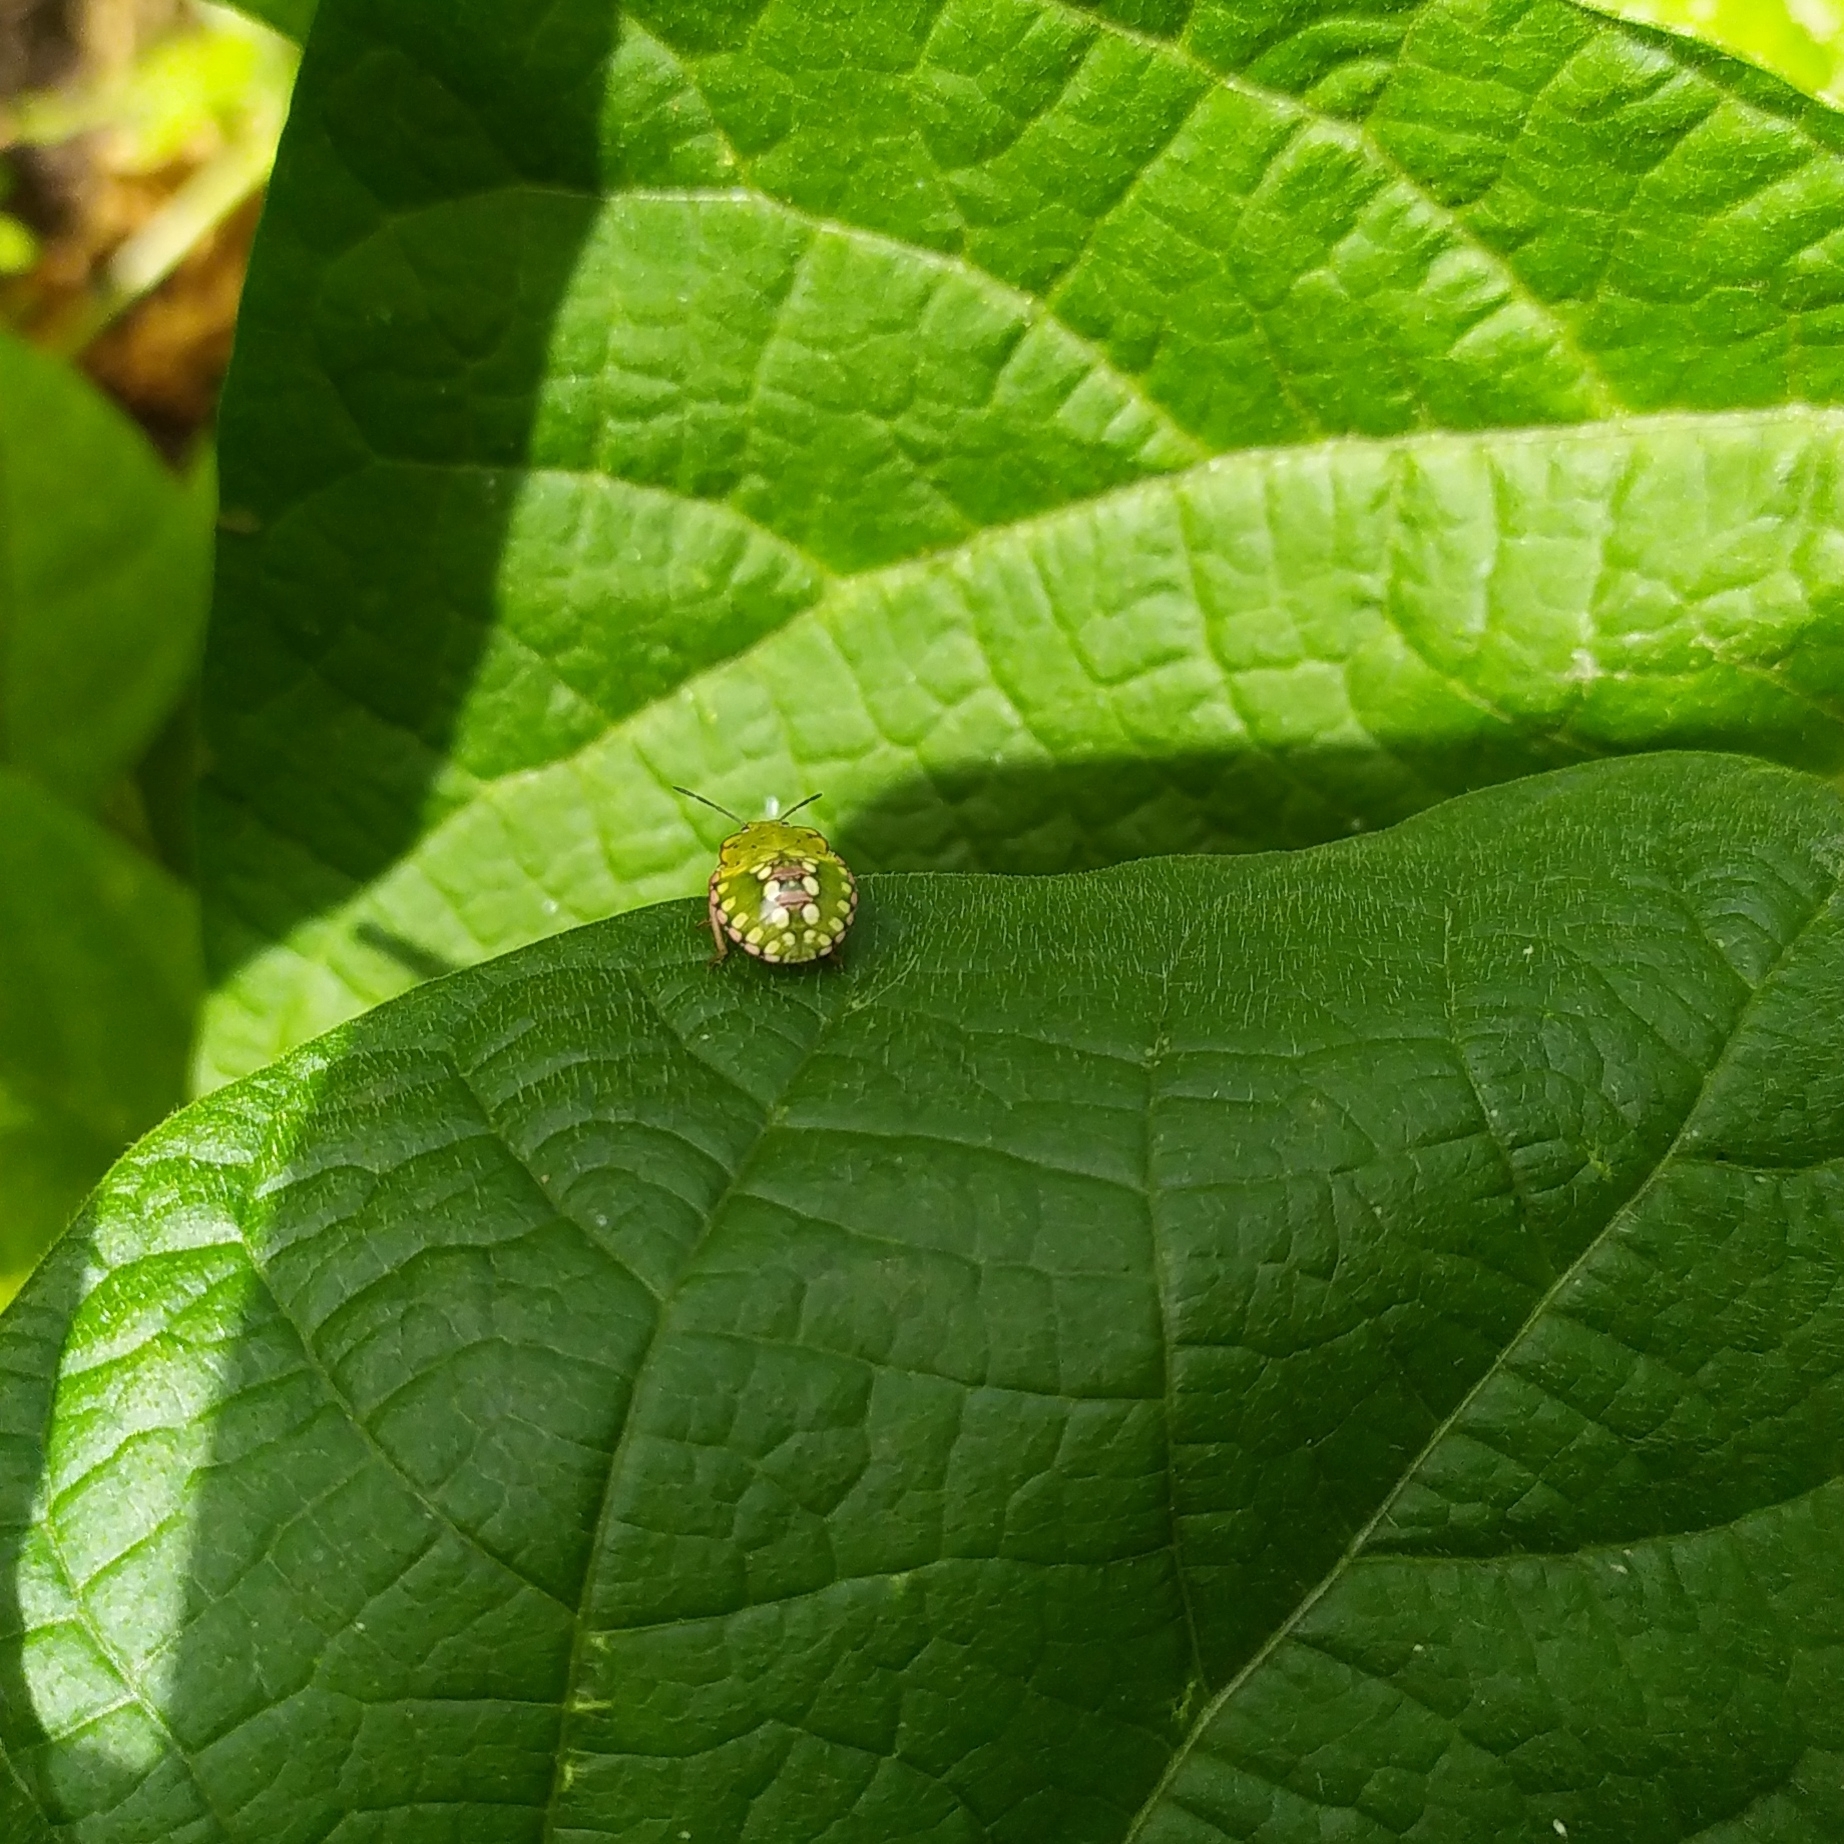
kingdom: Animalia
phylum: Arthropoda
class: Insecta
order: Hemiptera
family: Pentatomidae
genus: Nezara
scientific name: Nezara viridula
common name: Southern green stink bug
